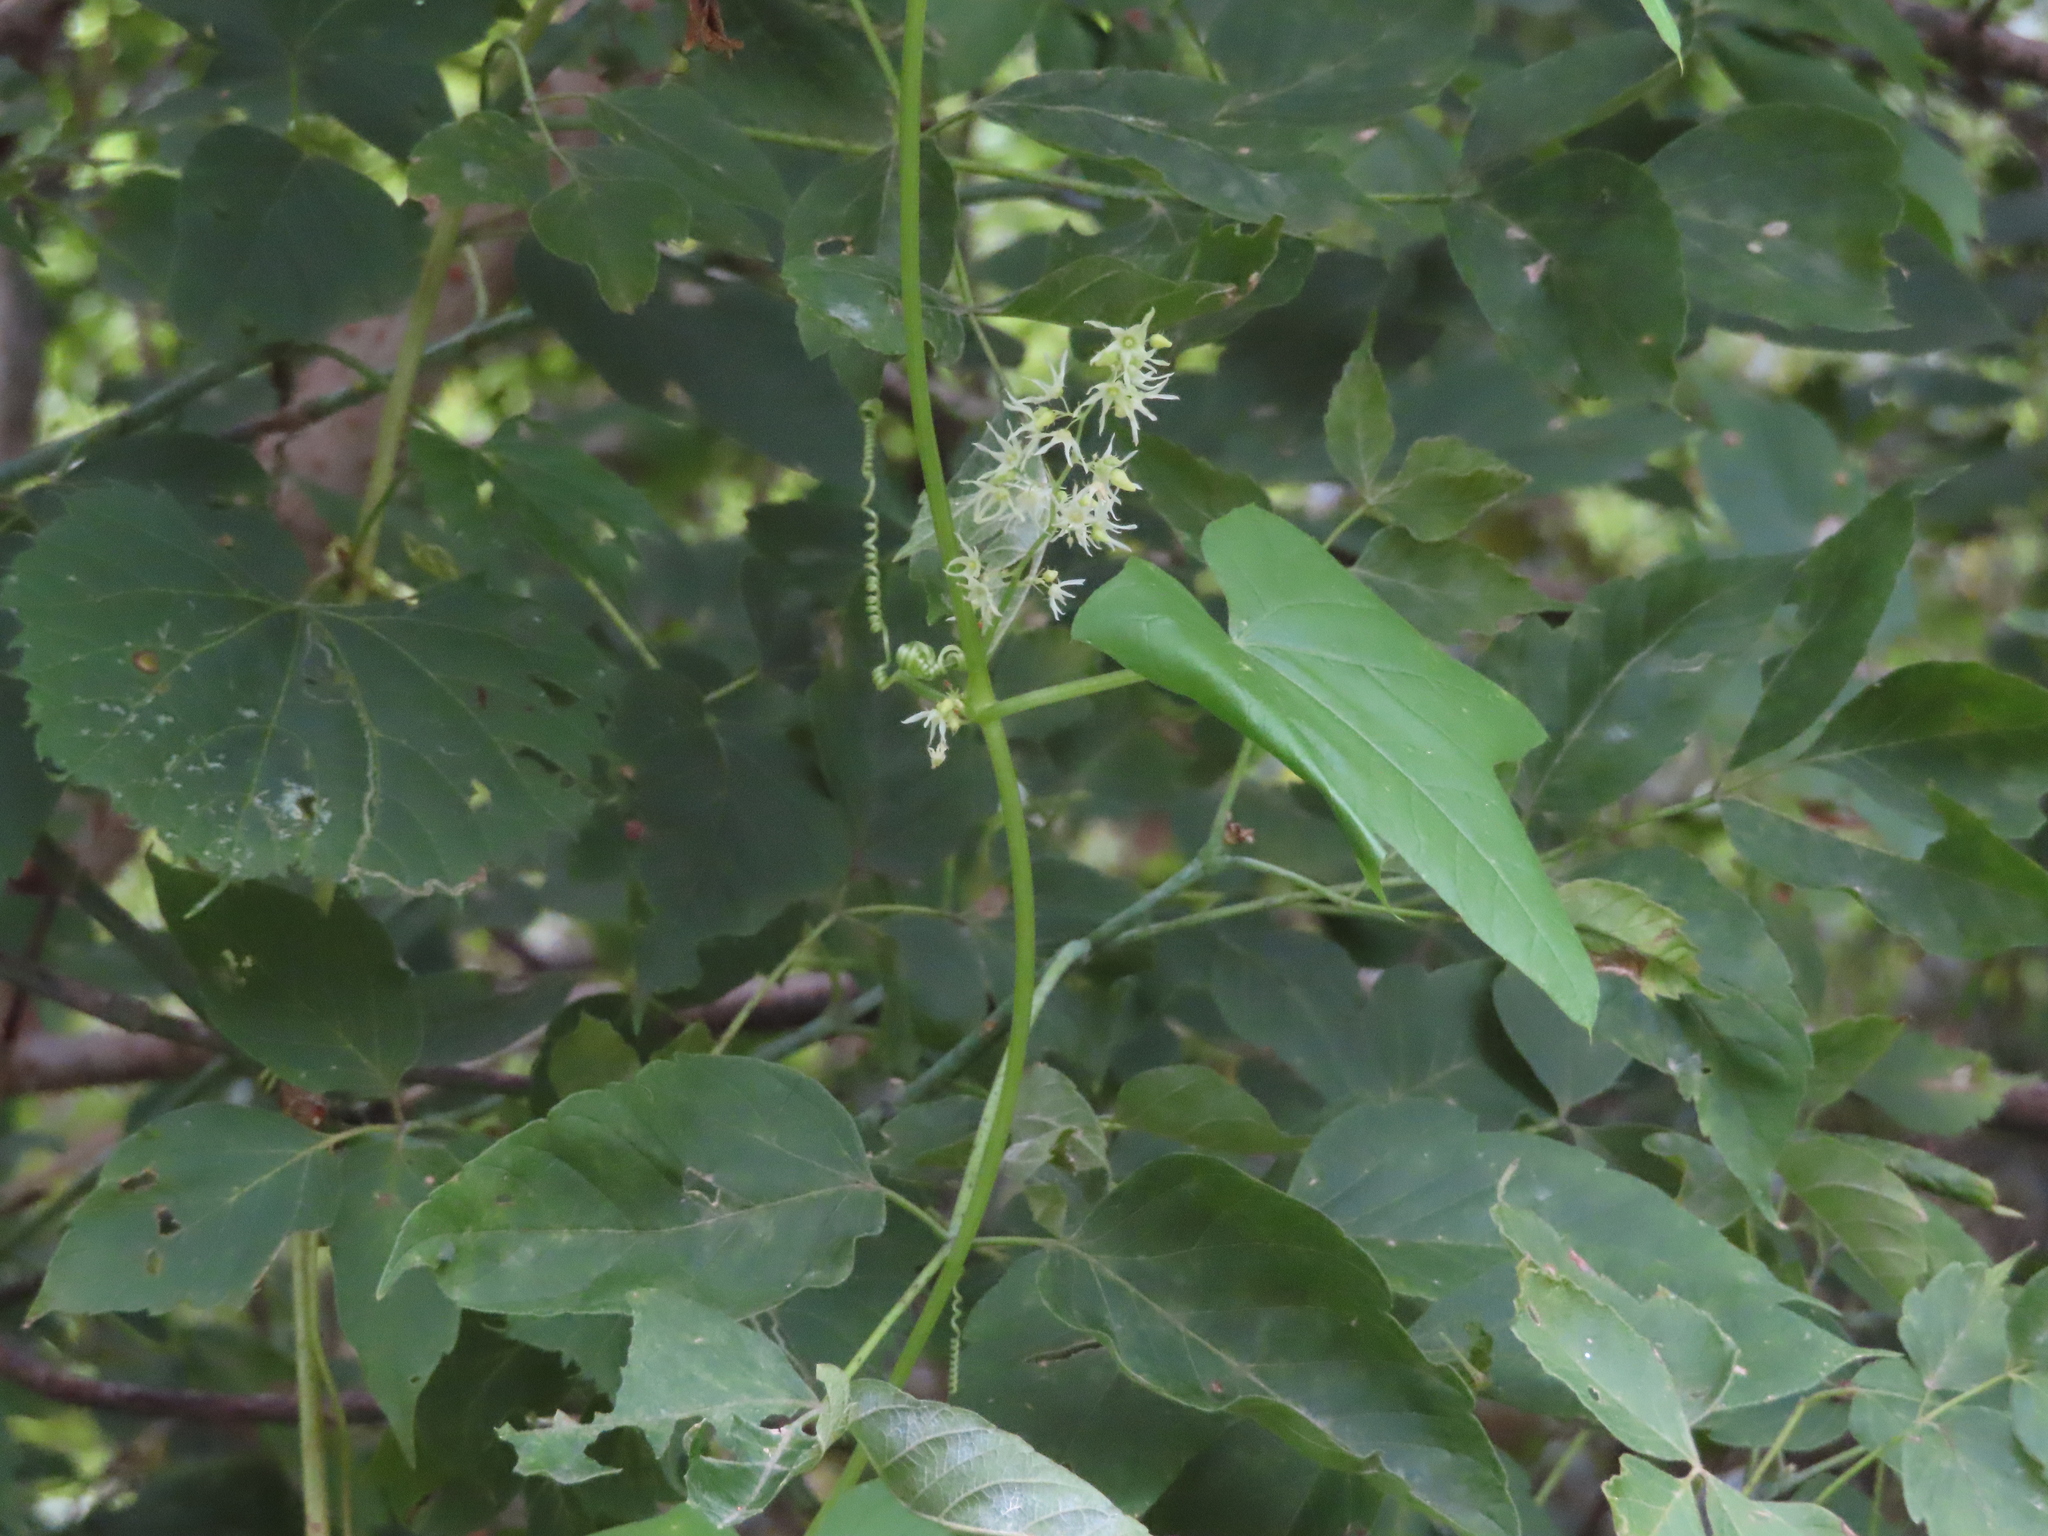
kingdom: Plantae
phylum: Tracheophyta
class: Magnoliopsida
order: Cucurbitales
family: Cucurbitaceae
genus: Echinocystis
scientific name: Echinocystis lobata
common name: Wild cucumber
